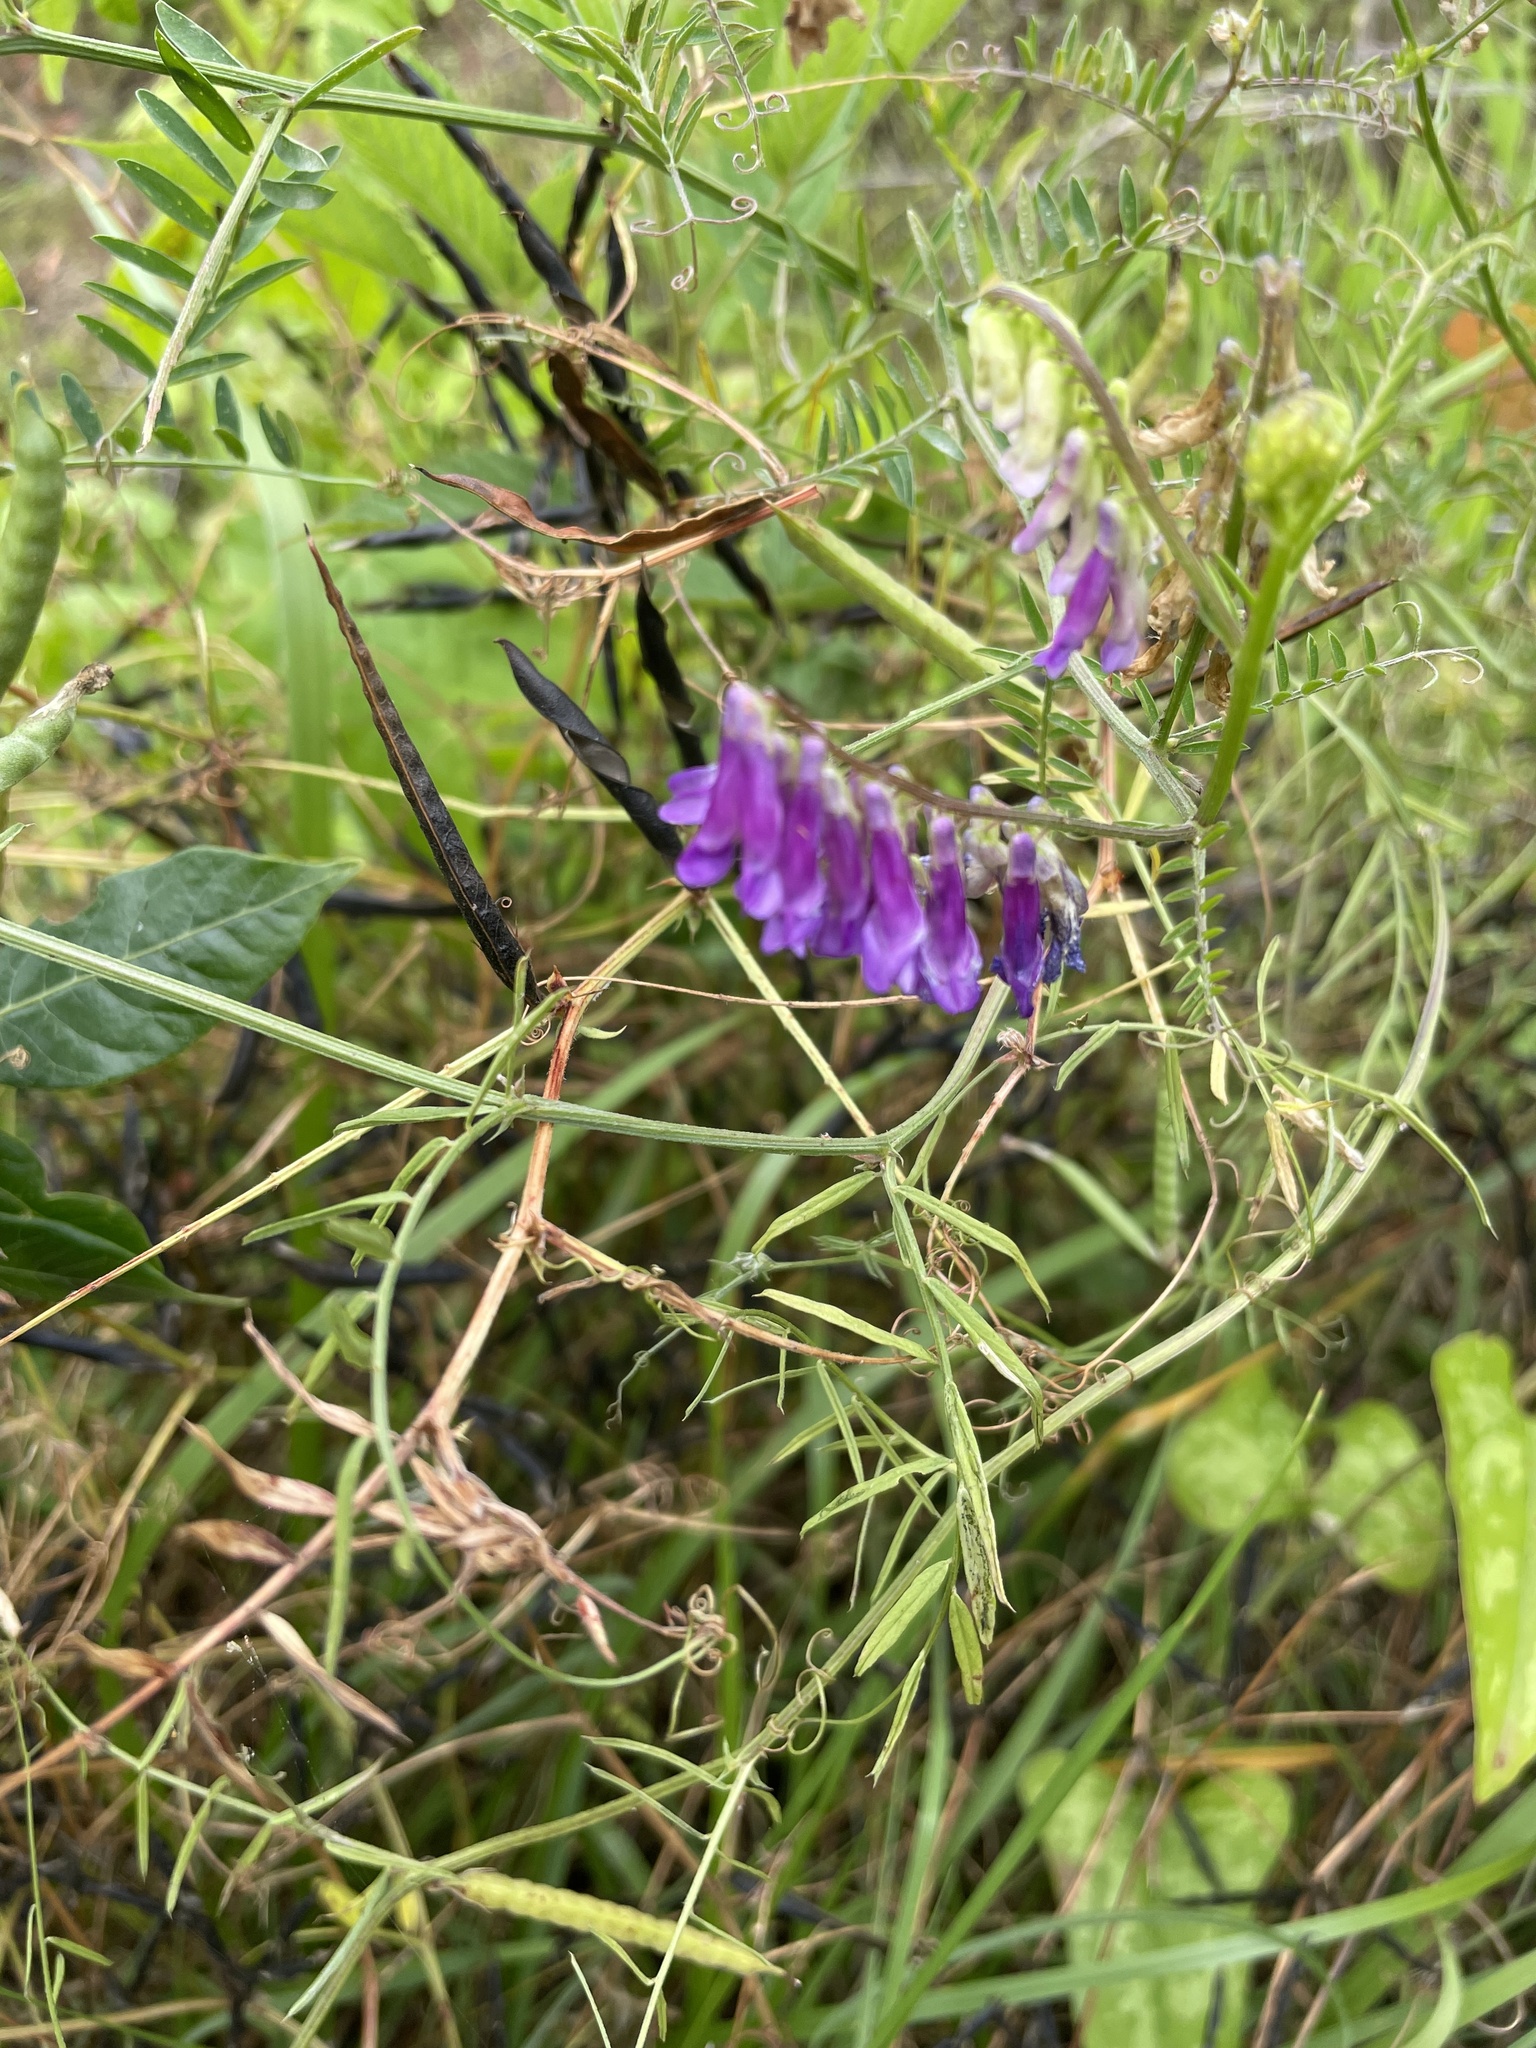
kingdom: Plantae
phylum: Tracheophyta
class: Magnoliopsida
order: Fabales
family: Fabaceae
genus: Vicia
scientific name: Vicia villosa
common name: Fodder vetch
